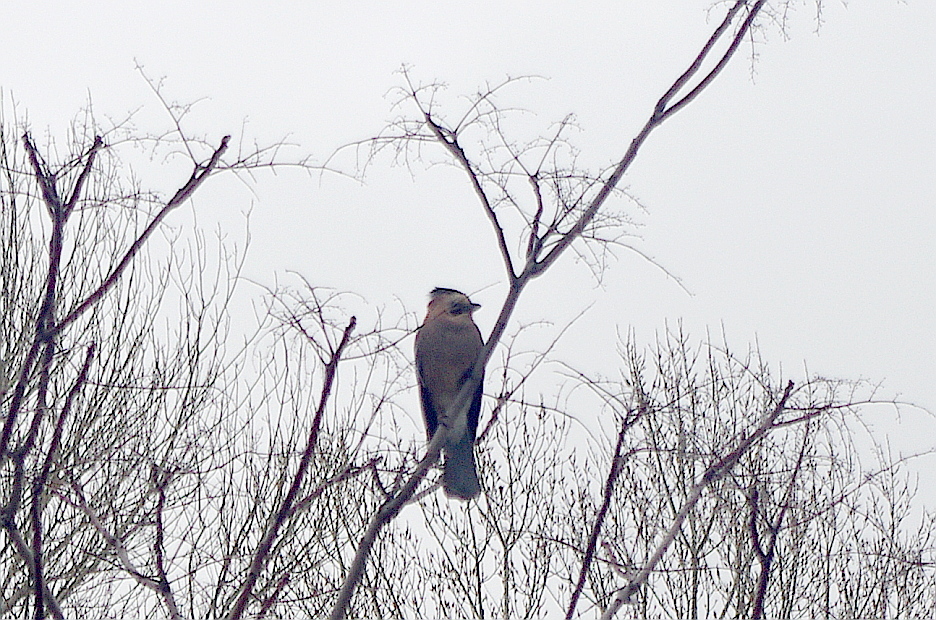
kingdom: Animalia
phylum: Chordata
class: Aves
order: Passeriformes
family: Corvidae
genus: Garrulus
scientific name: Garrulus glandarius
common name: Eurasian jay
